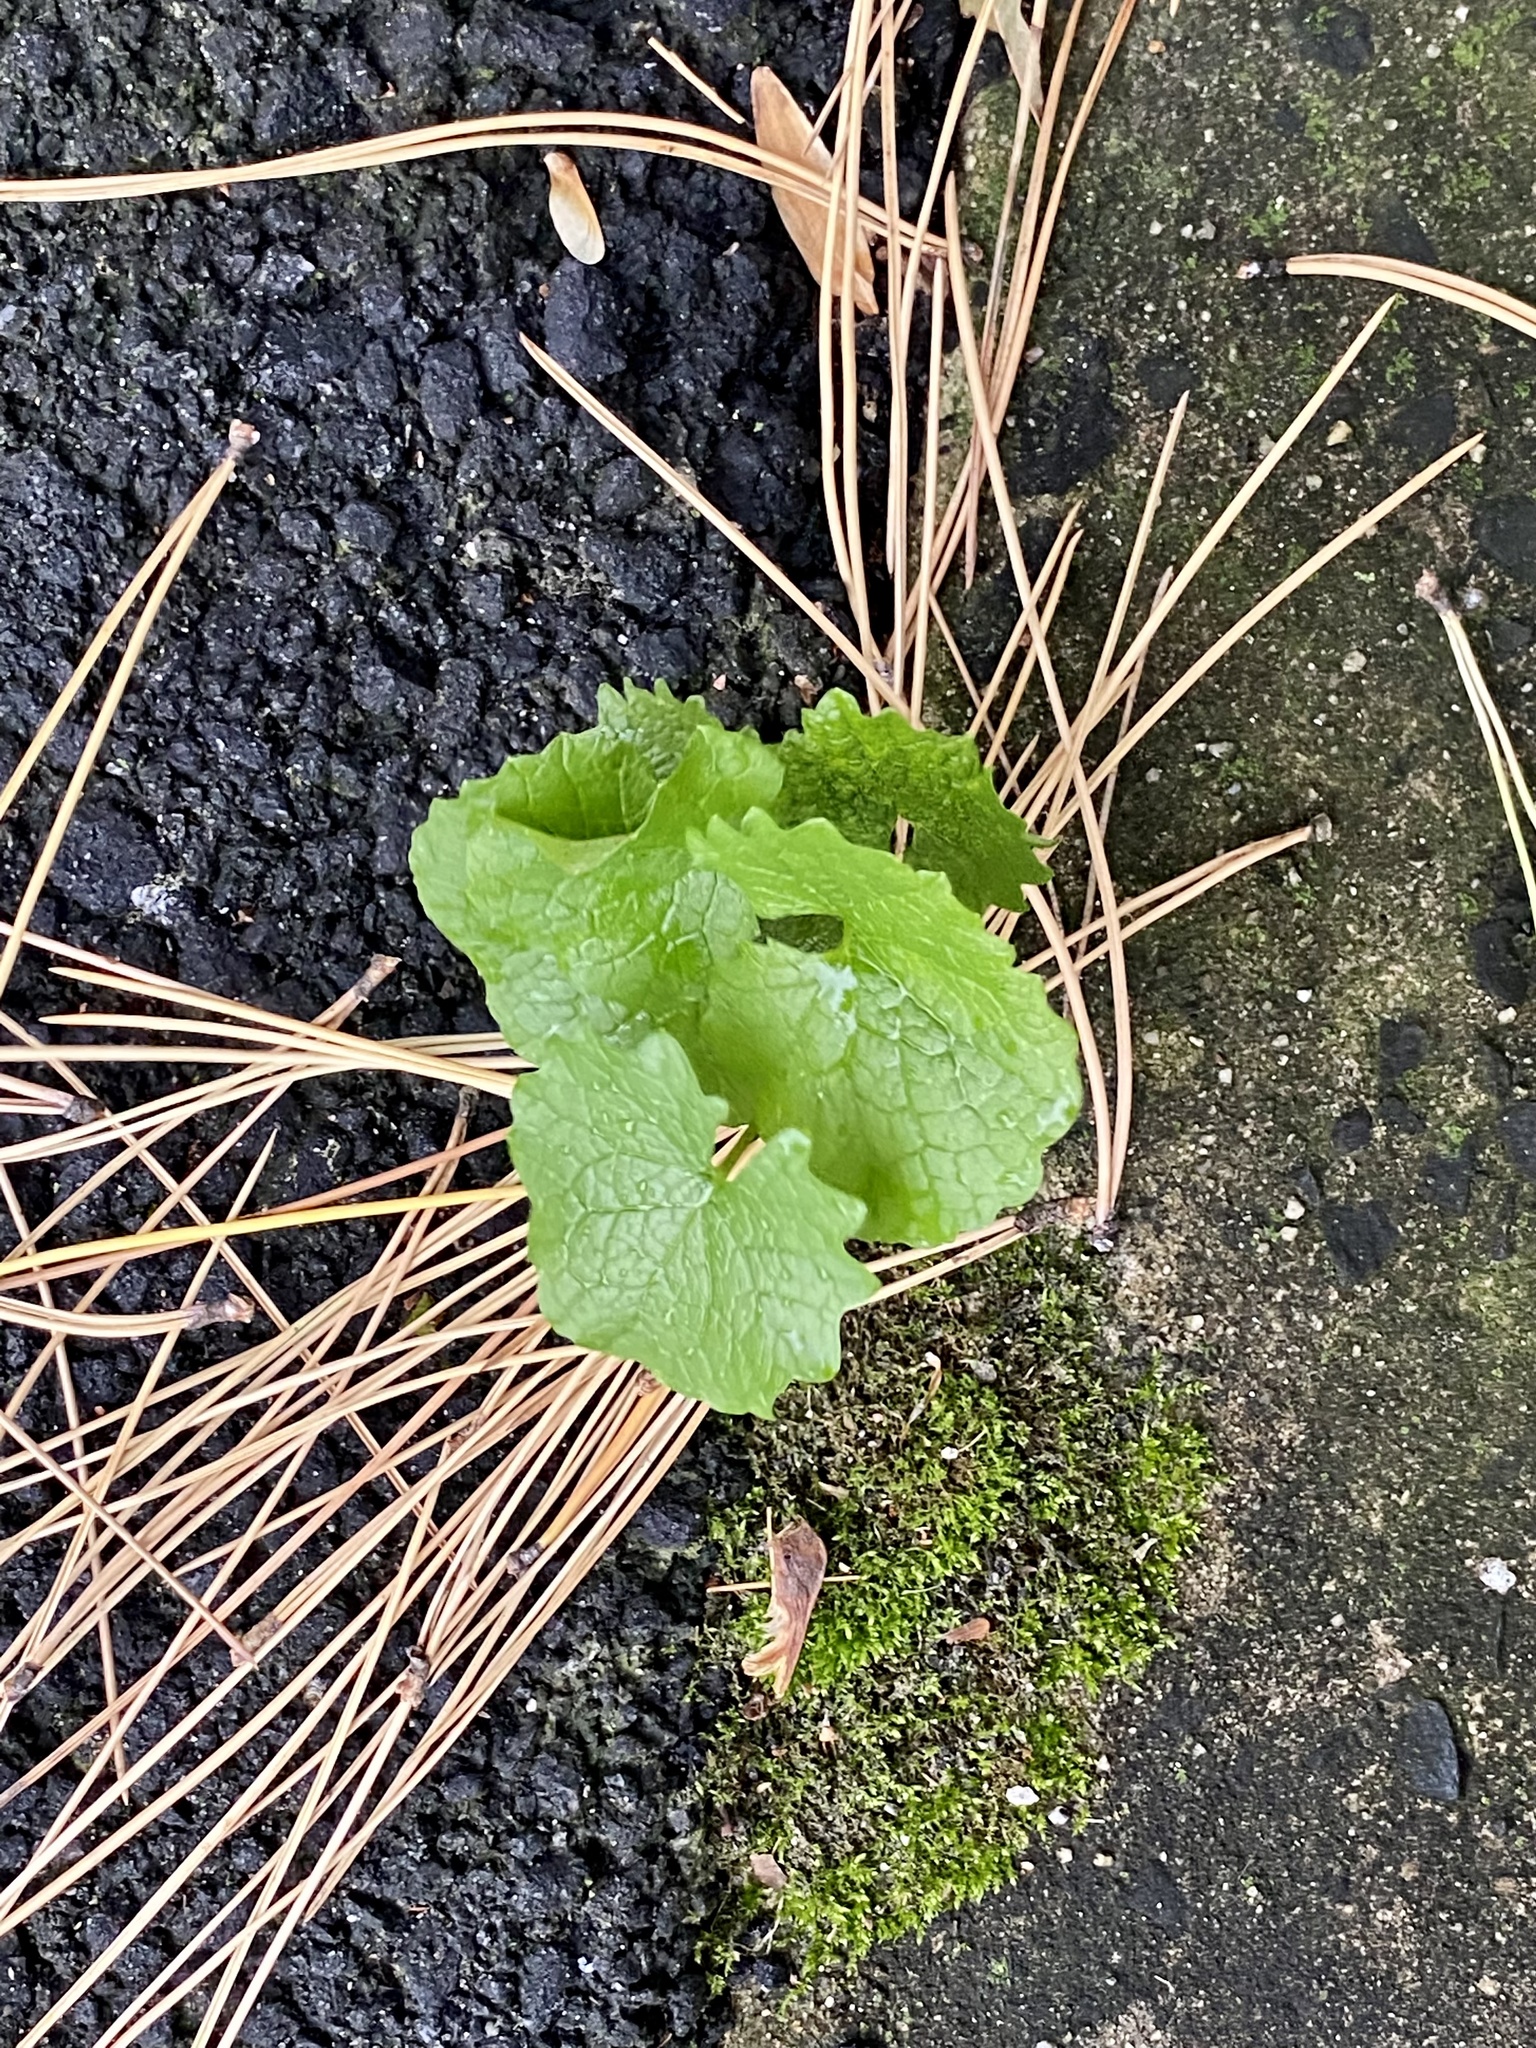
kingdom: Plantae
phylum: Tracheophyta
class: Magnoliopsida
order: Brassicales
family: Brassicaceae
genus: Alliaria
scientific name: Alliaria petiolata
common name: Garlic mustard
